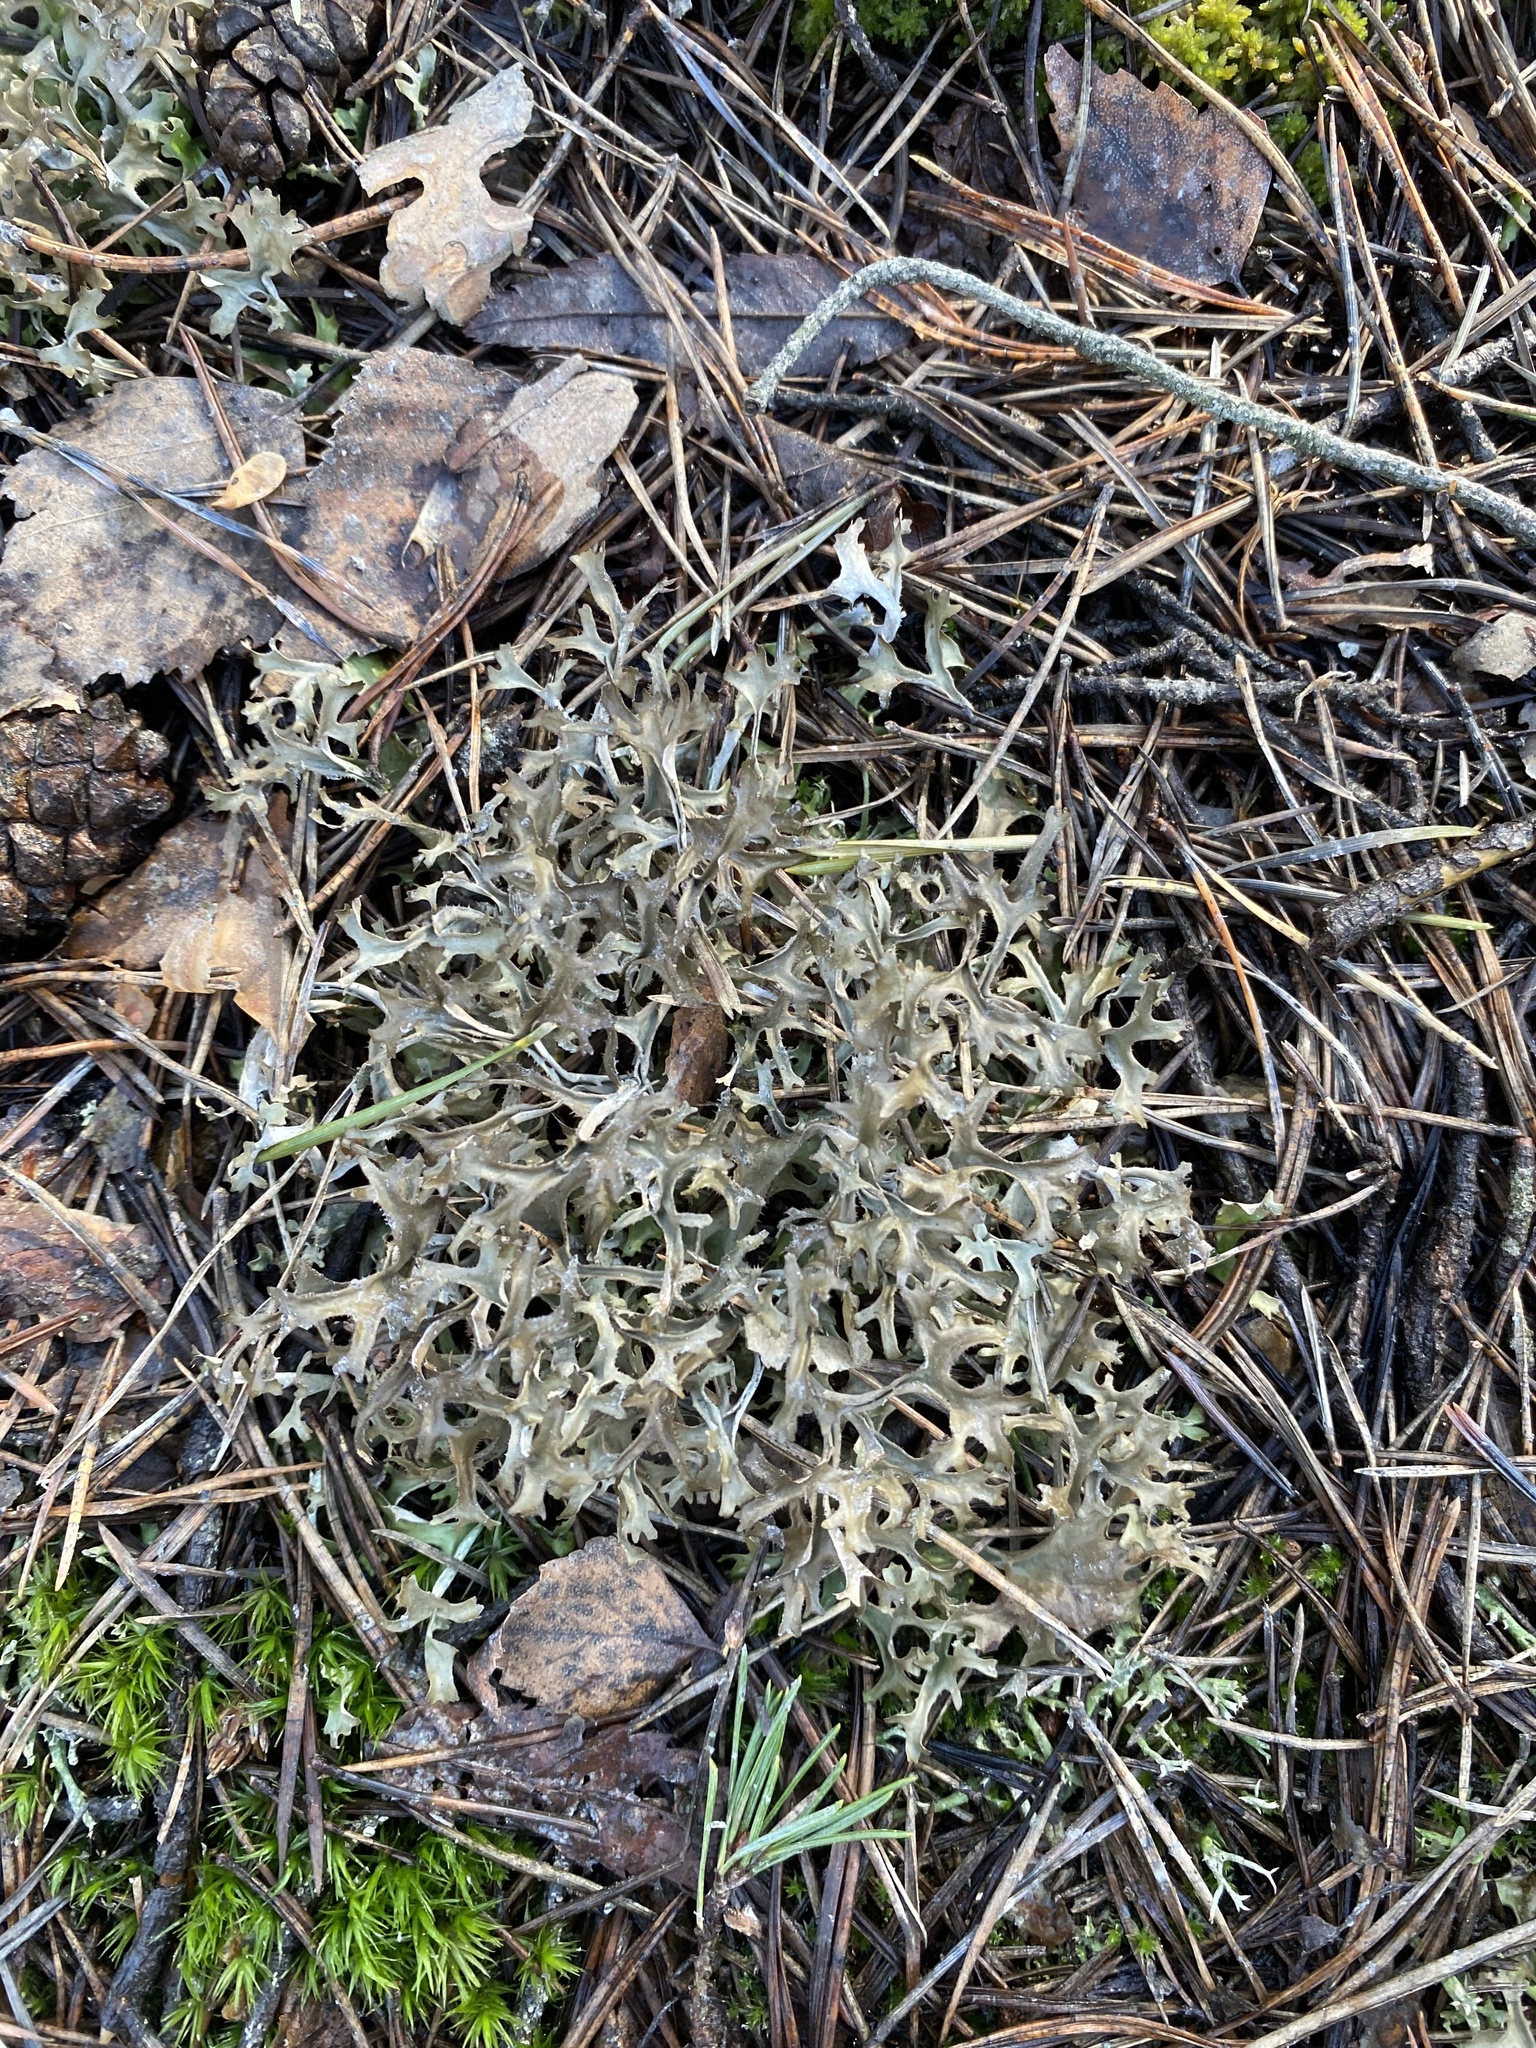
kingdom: Fungi
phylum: Ascomycota
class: Lecanoromycetes
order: Lecanorales
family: Parmeliaceae
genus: Cetraria
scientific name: Cetraria islandica
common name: Iceland lichen
